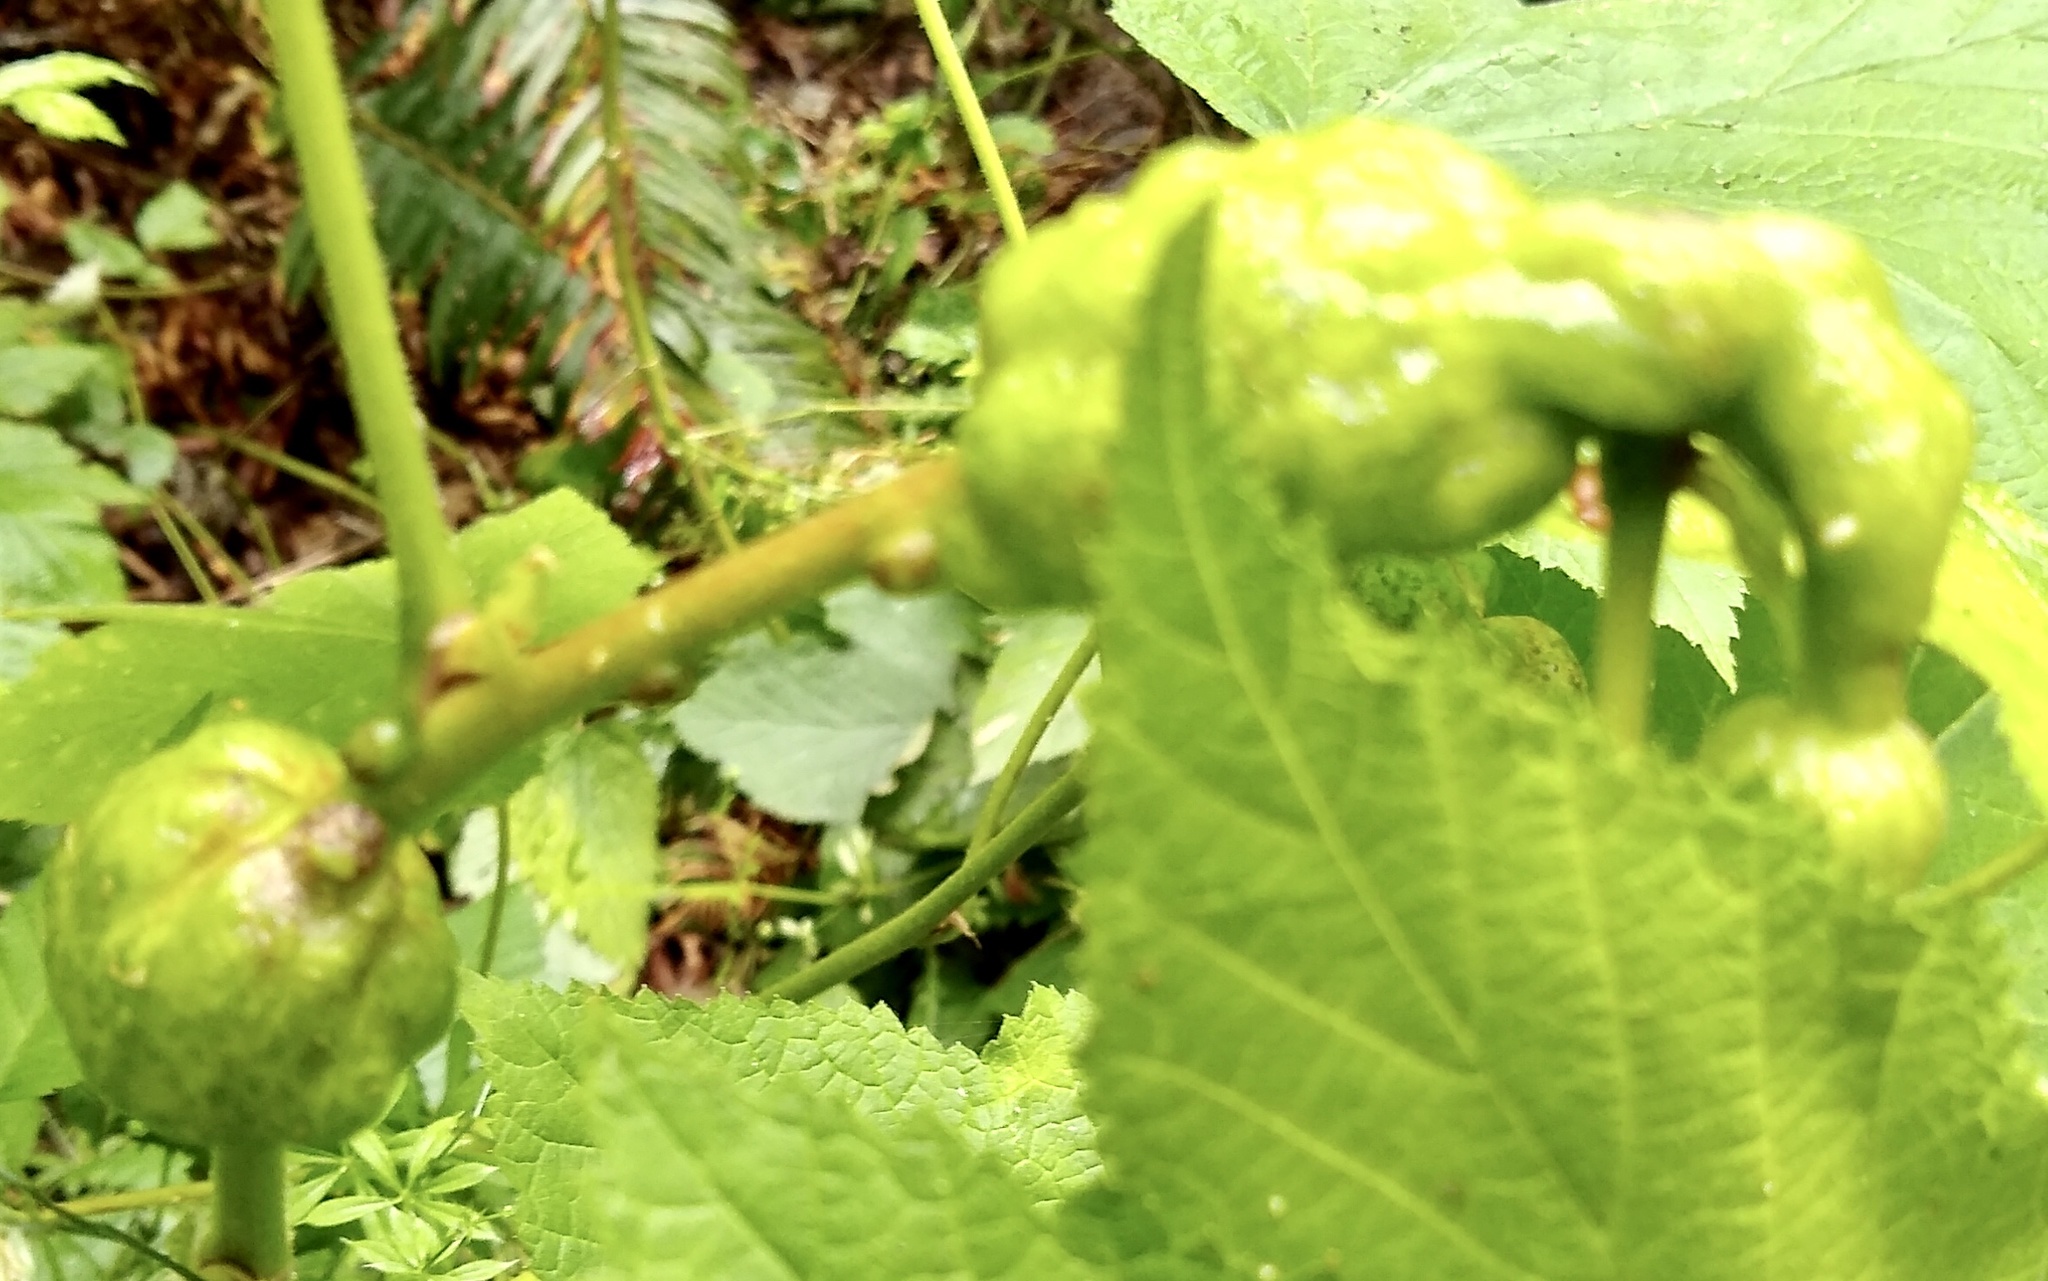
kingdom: Animalia
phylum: Arthropoda
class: Insecta
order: Hymenoptera
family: Cynipidae
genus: Diastrophus
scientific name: Diastrophus
